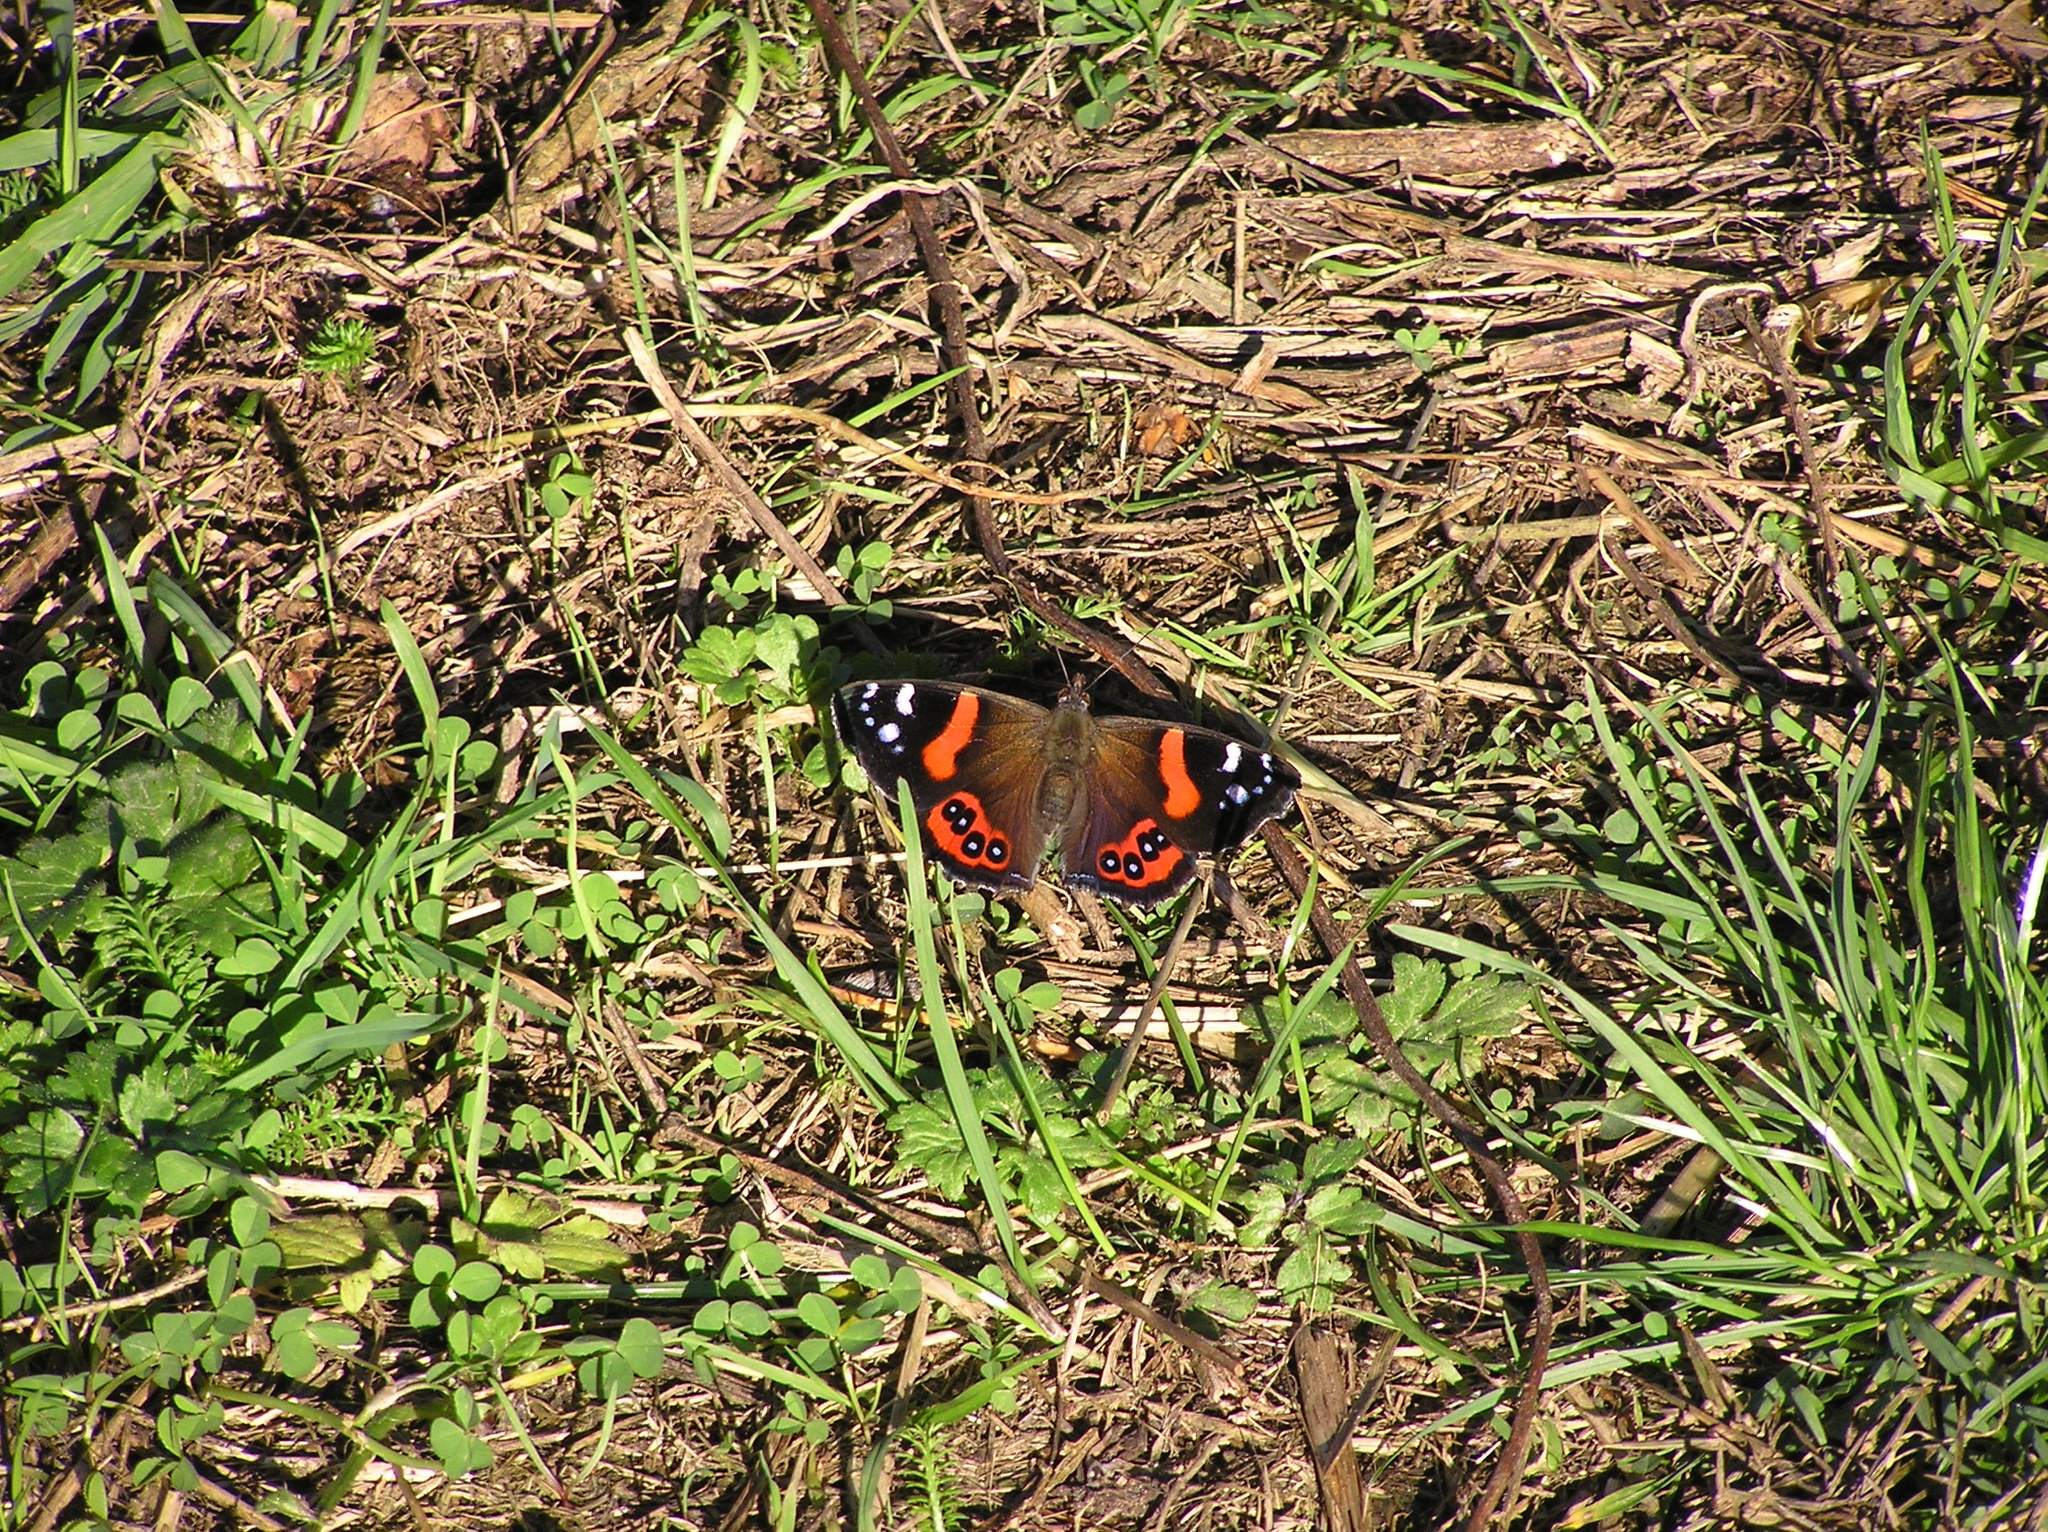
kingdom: Animalia
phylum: Arthropoda
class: Insecta
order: Lepidoptera
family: Nymphalidae
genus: Vanessa
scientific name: Vanessa gonerilla
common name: New zealand red admiral
